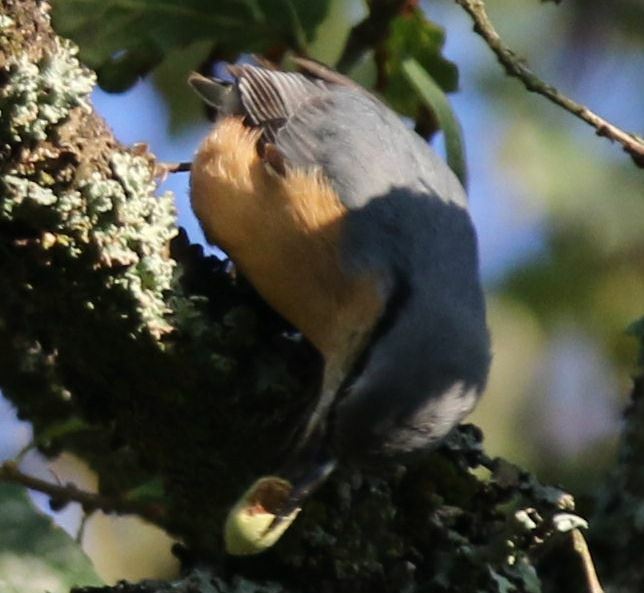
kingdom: Animalia
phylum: Chordata
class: Aves
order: Passeriformes
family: Sittidae
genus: Sitta
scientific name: Sitta europaea
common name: Eurasian nuthatch
